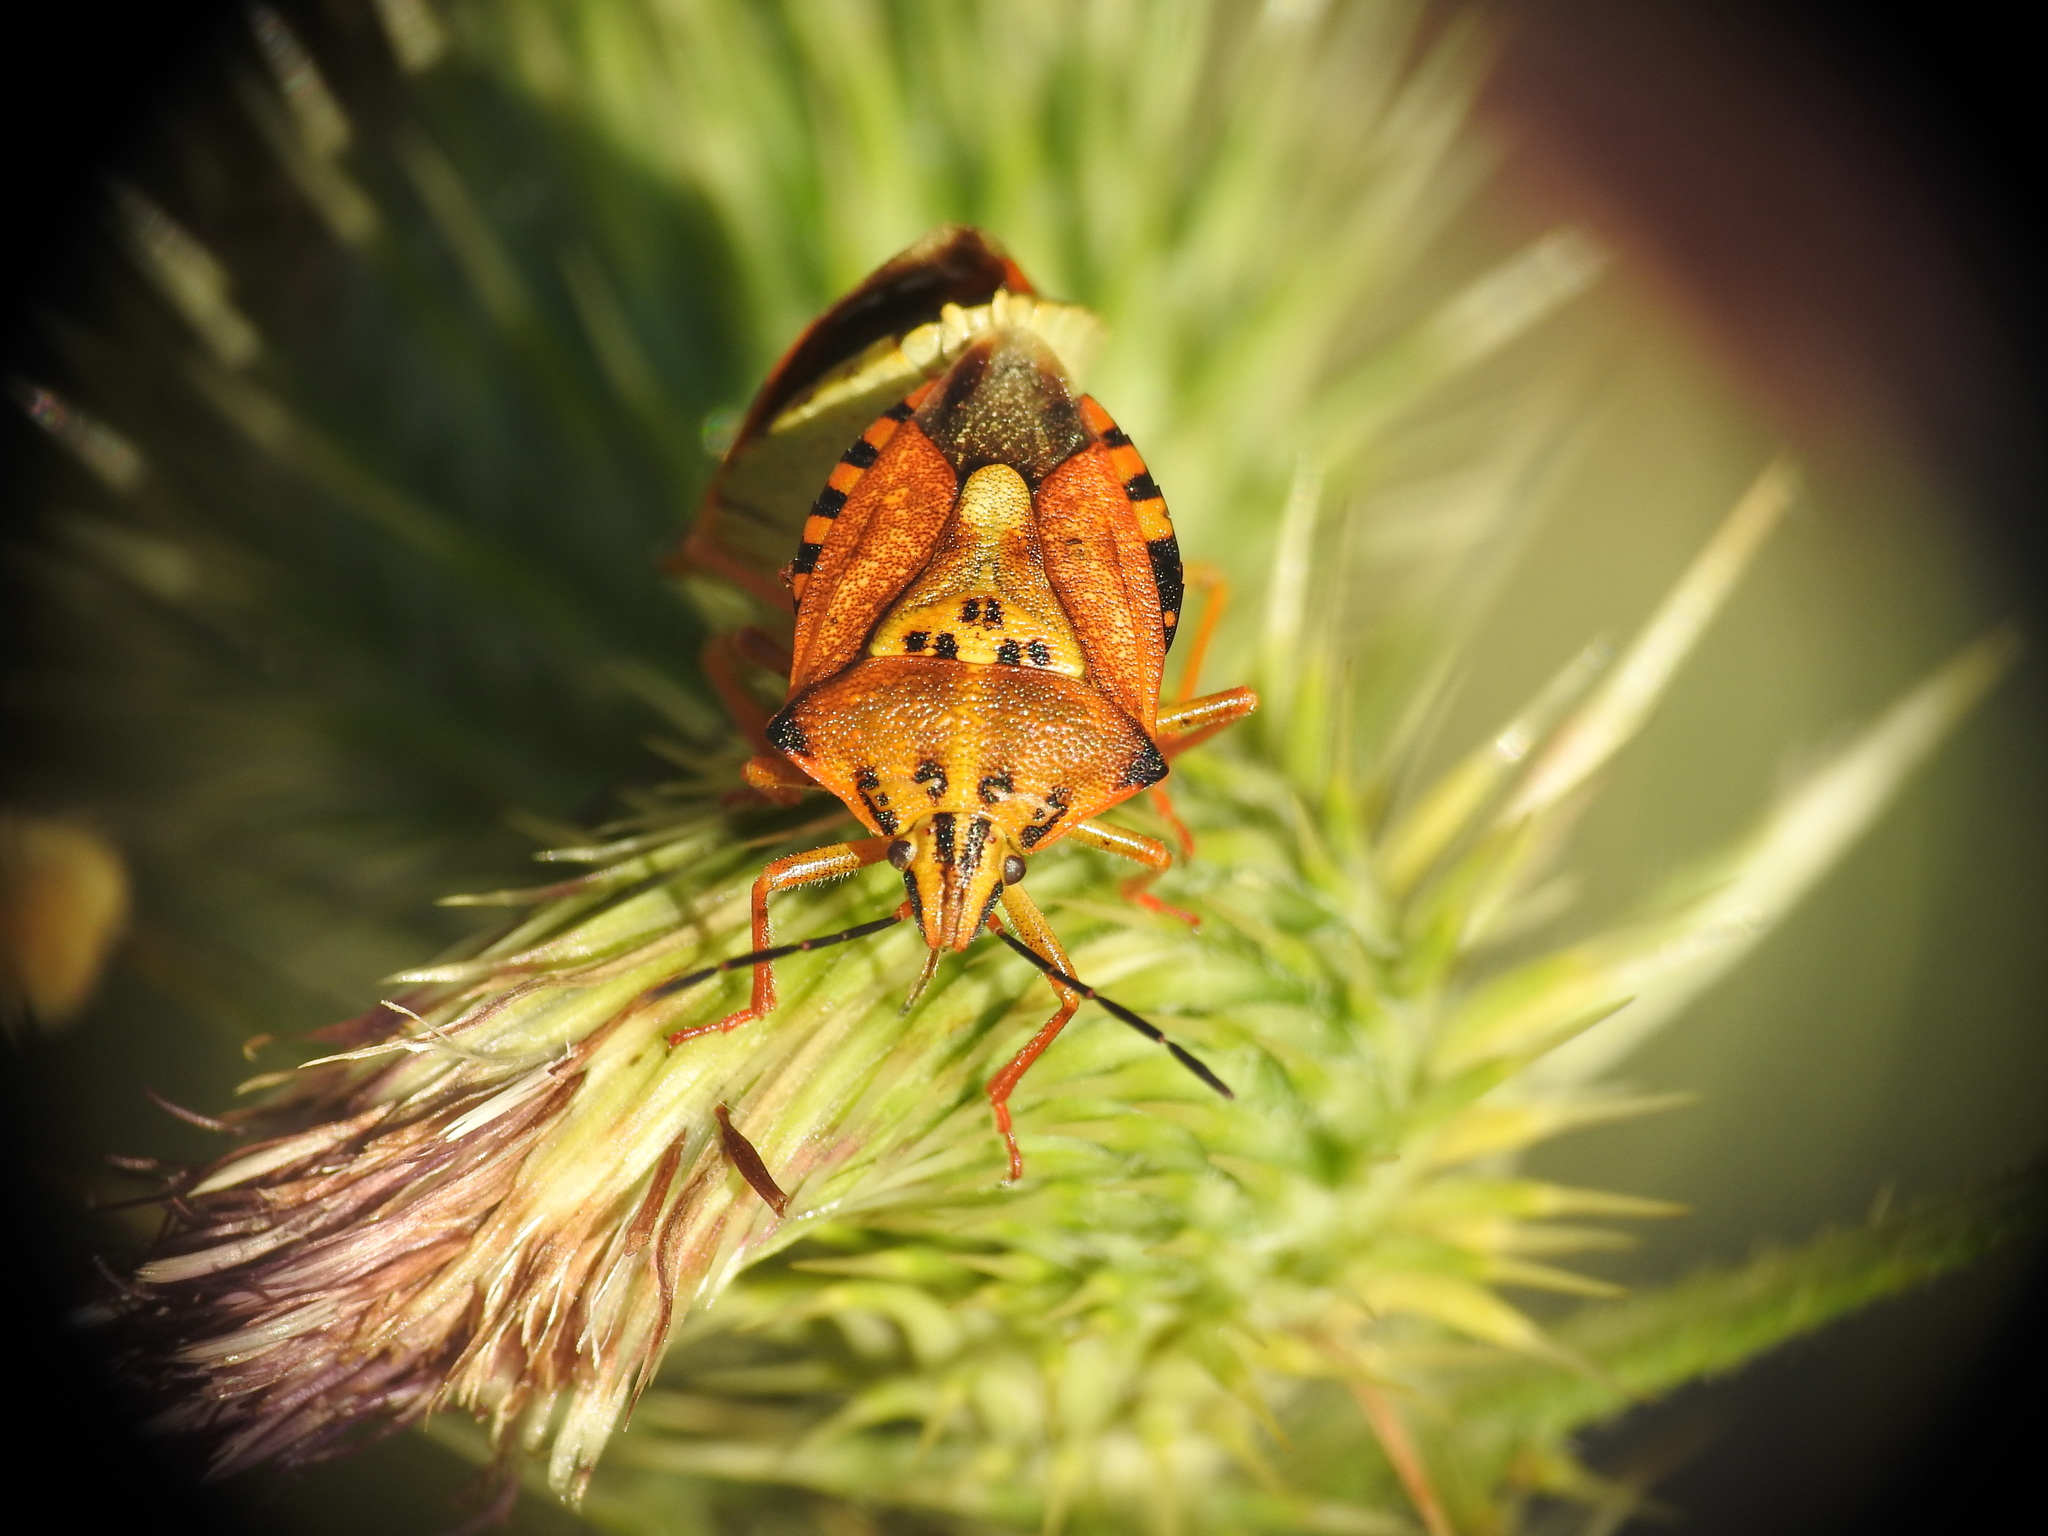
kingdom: Animalia
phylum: Arthropoda
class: Insecta
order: Hemiptera
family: Pentatomidae
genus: Carpocoris
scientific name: Carpocoris mediterraneus
